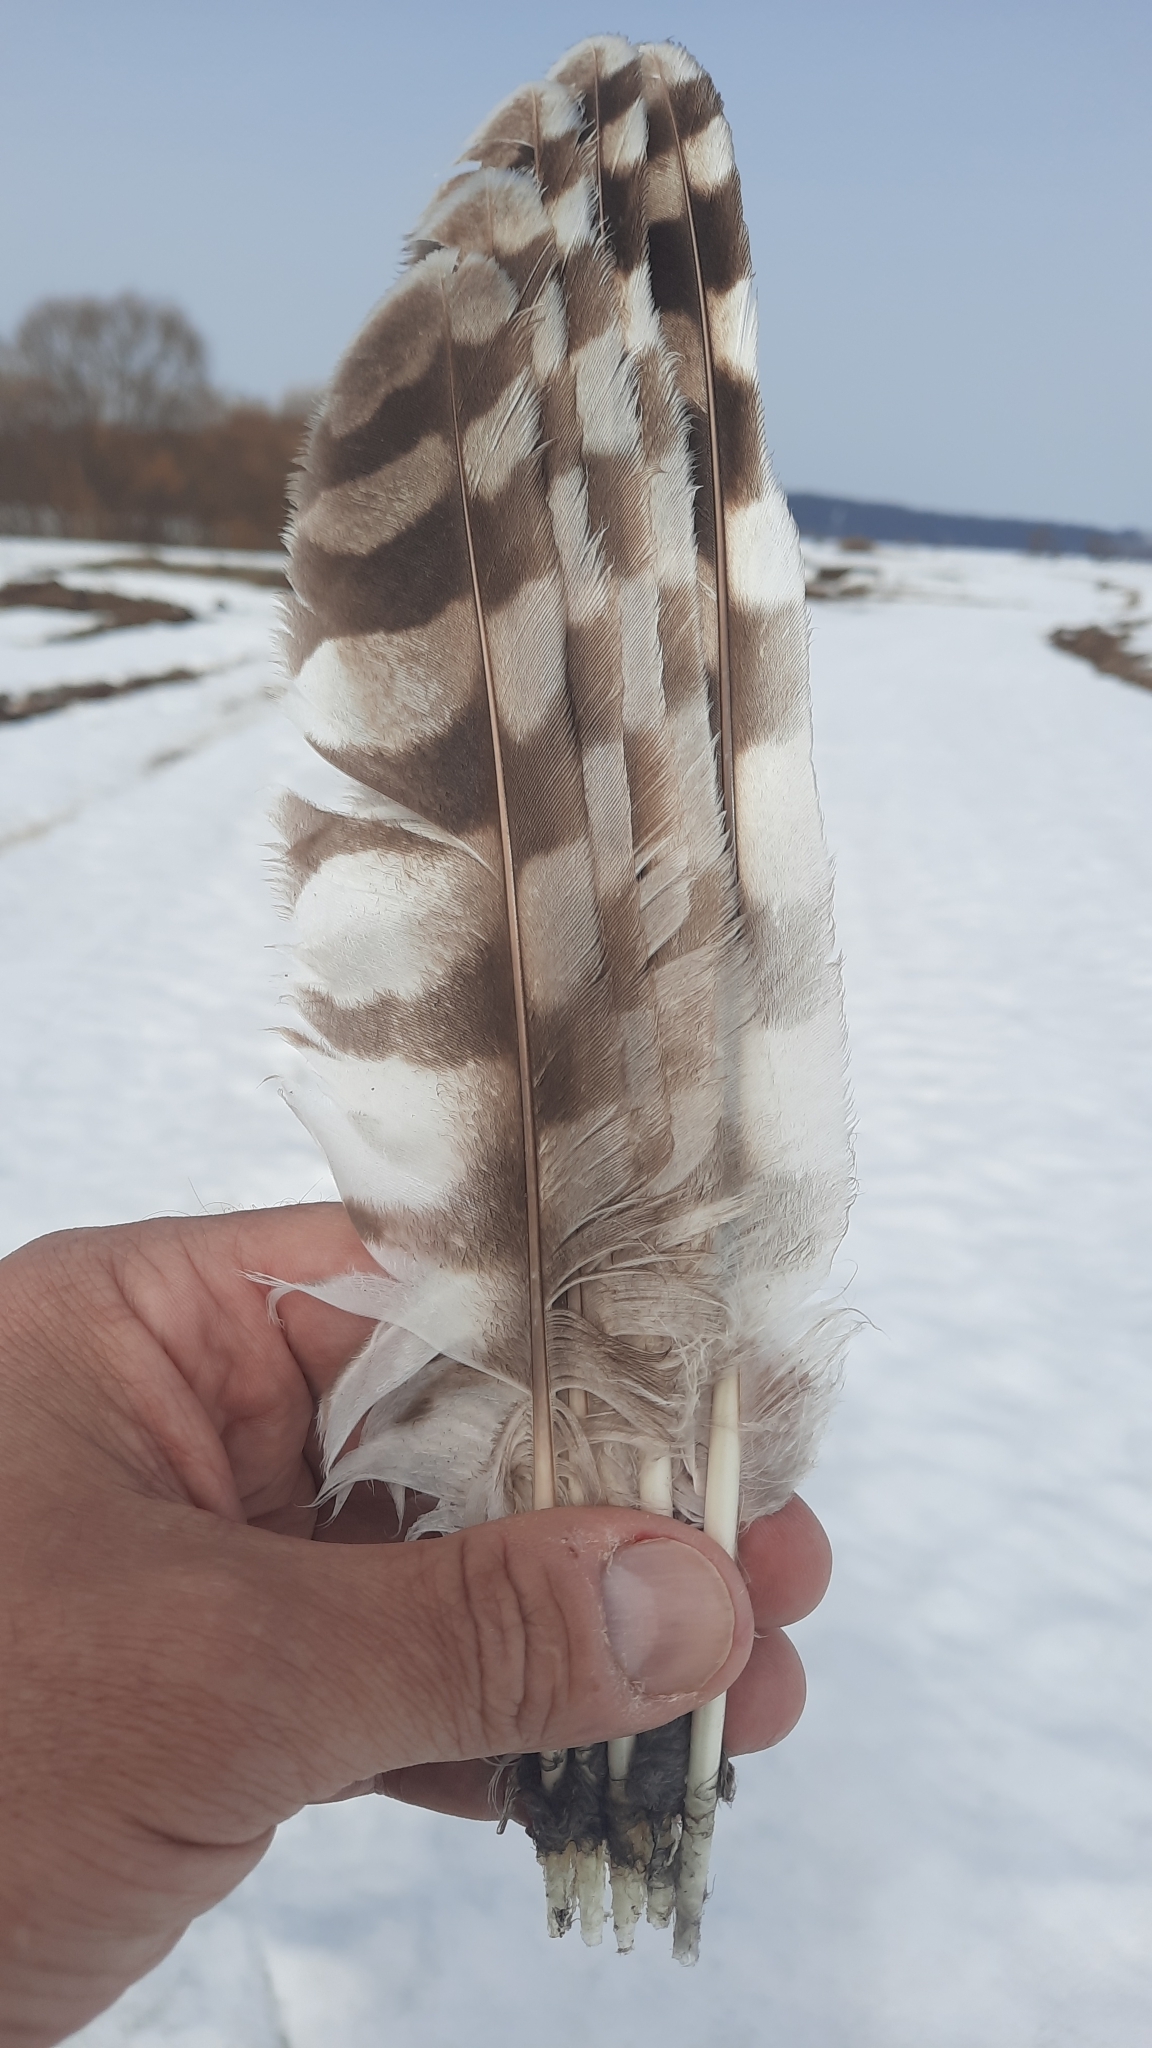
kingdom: Animalia
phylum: Chordata
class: Aves
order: Strigiformes
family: Strigidae
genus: Strix
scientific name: Strix uralensis
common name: Ural owl
